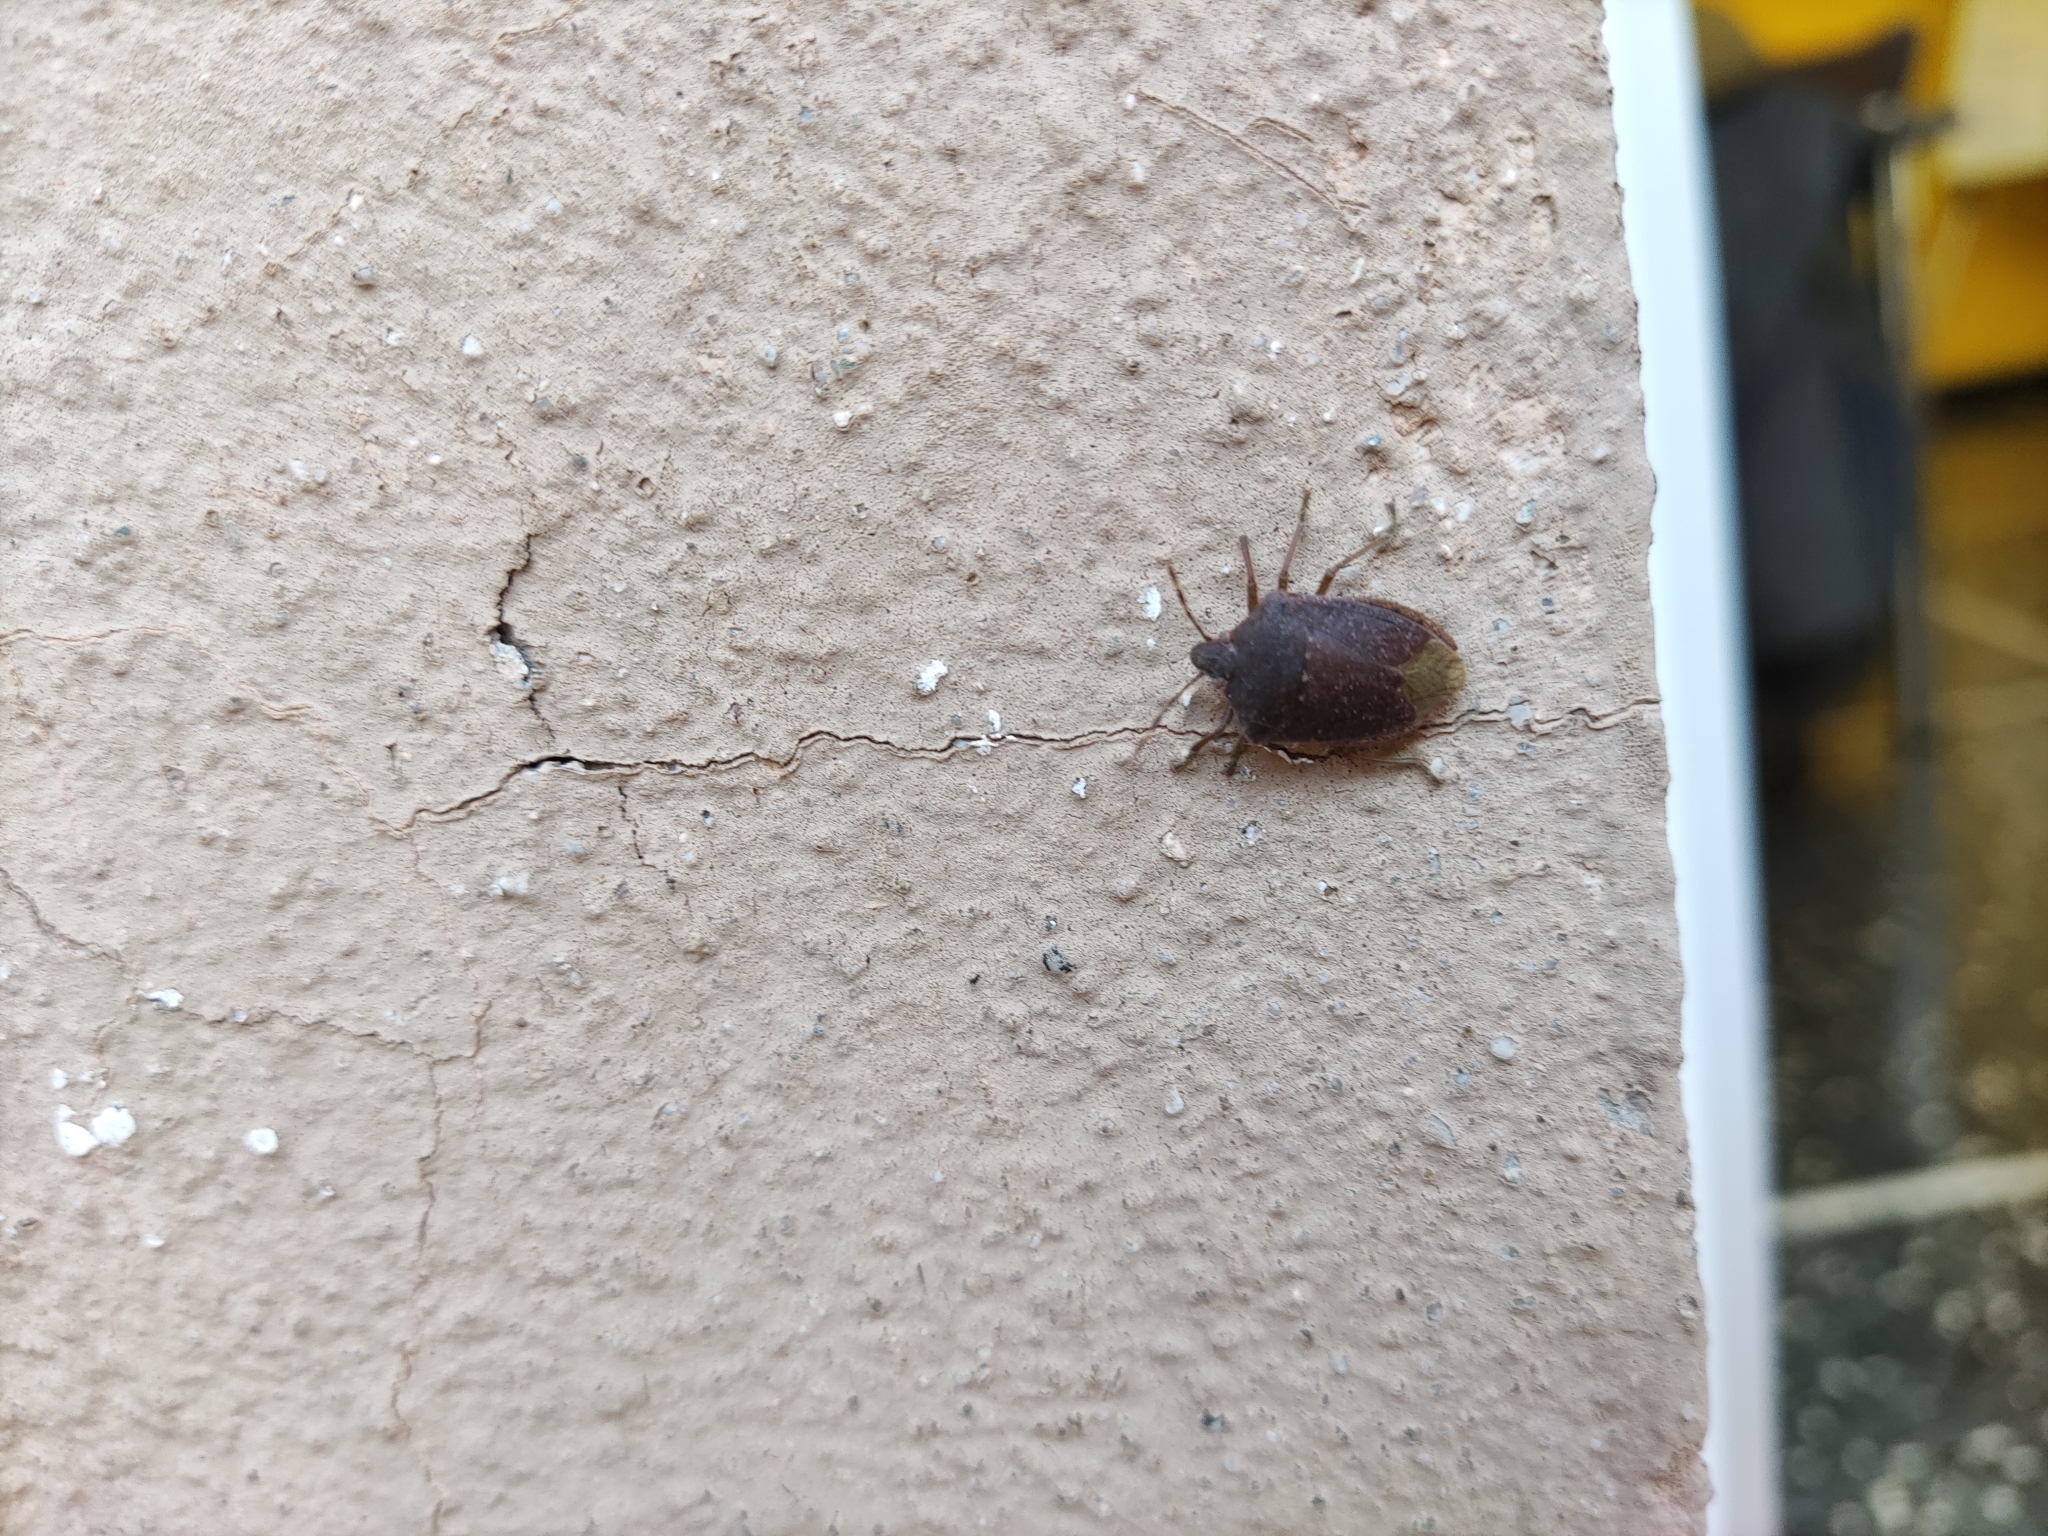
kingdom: Animalia
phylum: Arthropoda
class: Insecta
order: Hemiptera
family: Pentatomidae
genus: Nezara
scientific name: Nezara viridula
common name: Southern green stink bug
